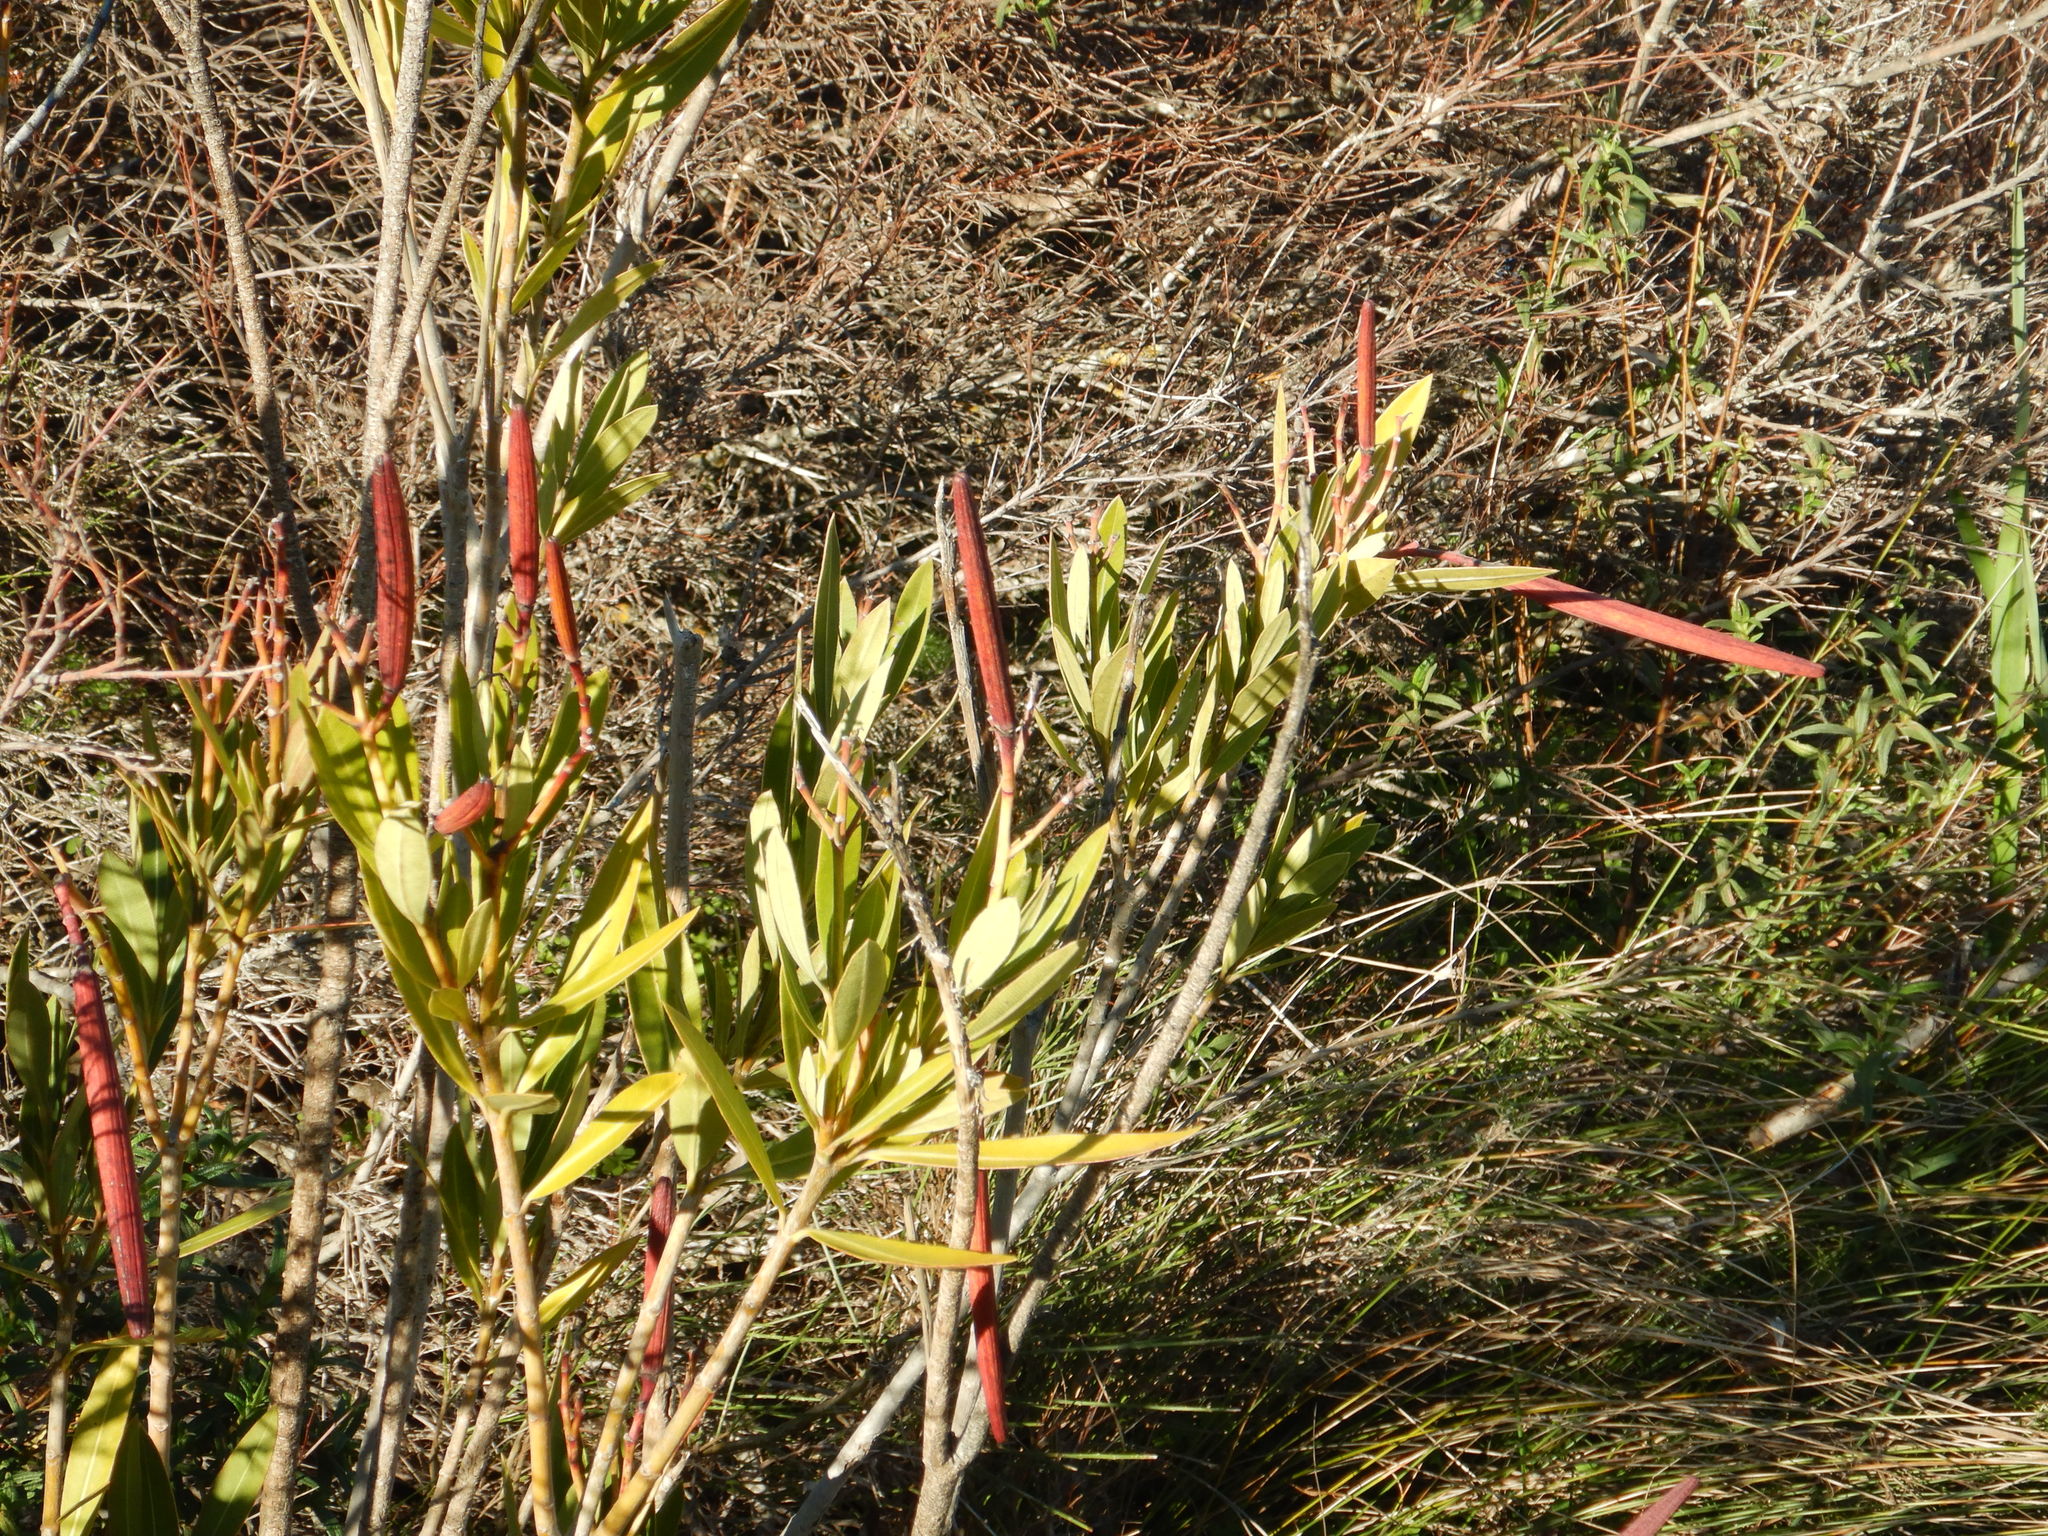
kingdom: Plantae
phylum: Tracheophyta
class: Magnoliopsida
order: Gentianales
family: Apocynaceae
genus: Nerium
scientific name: Nerium oleander
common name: Oleander
